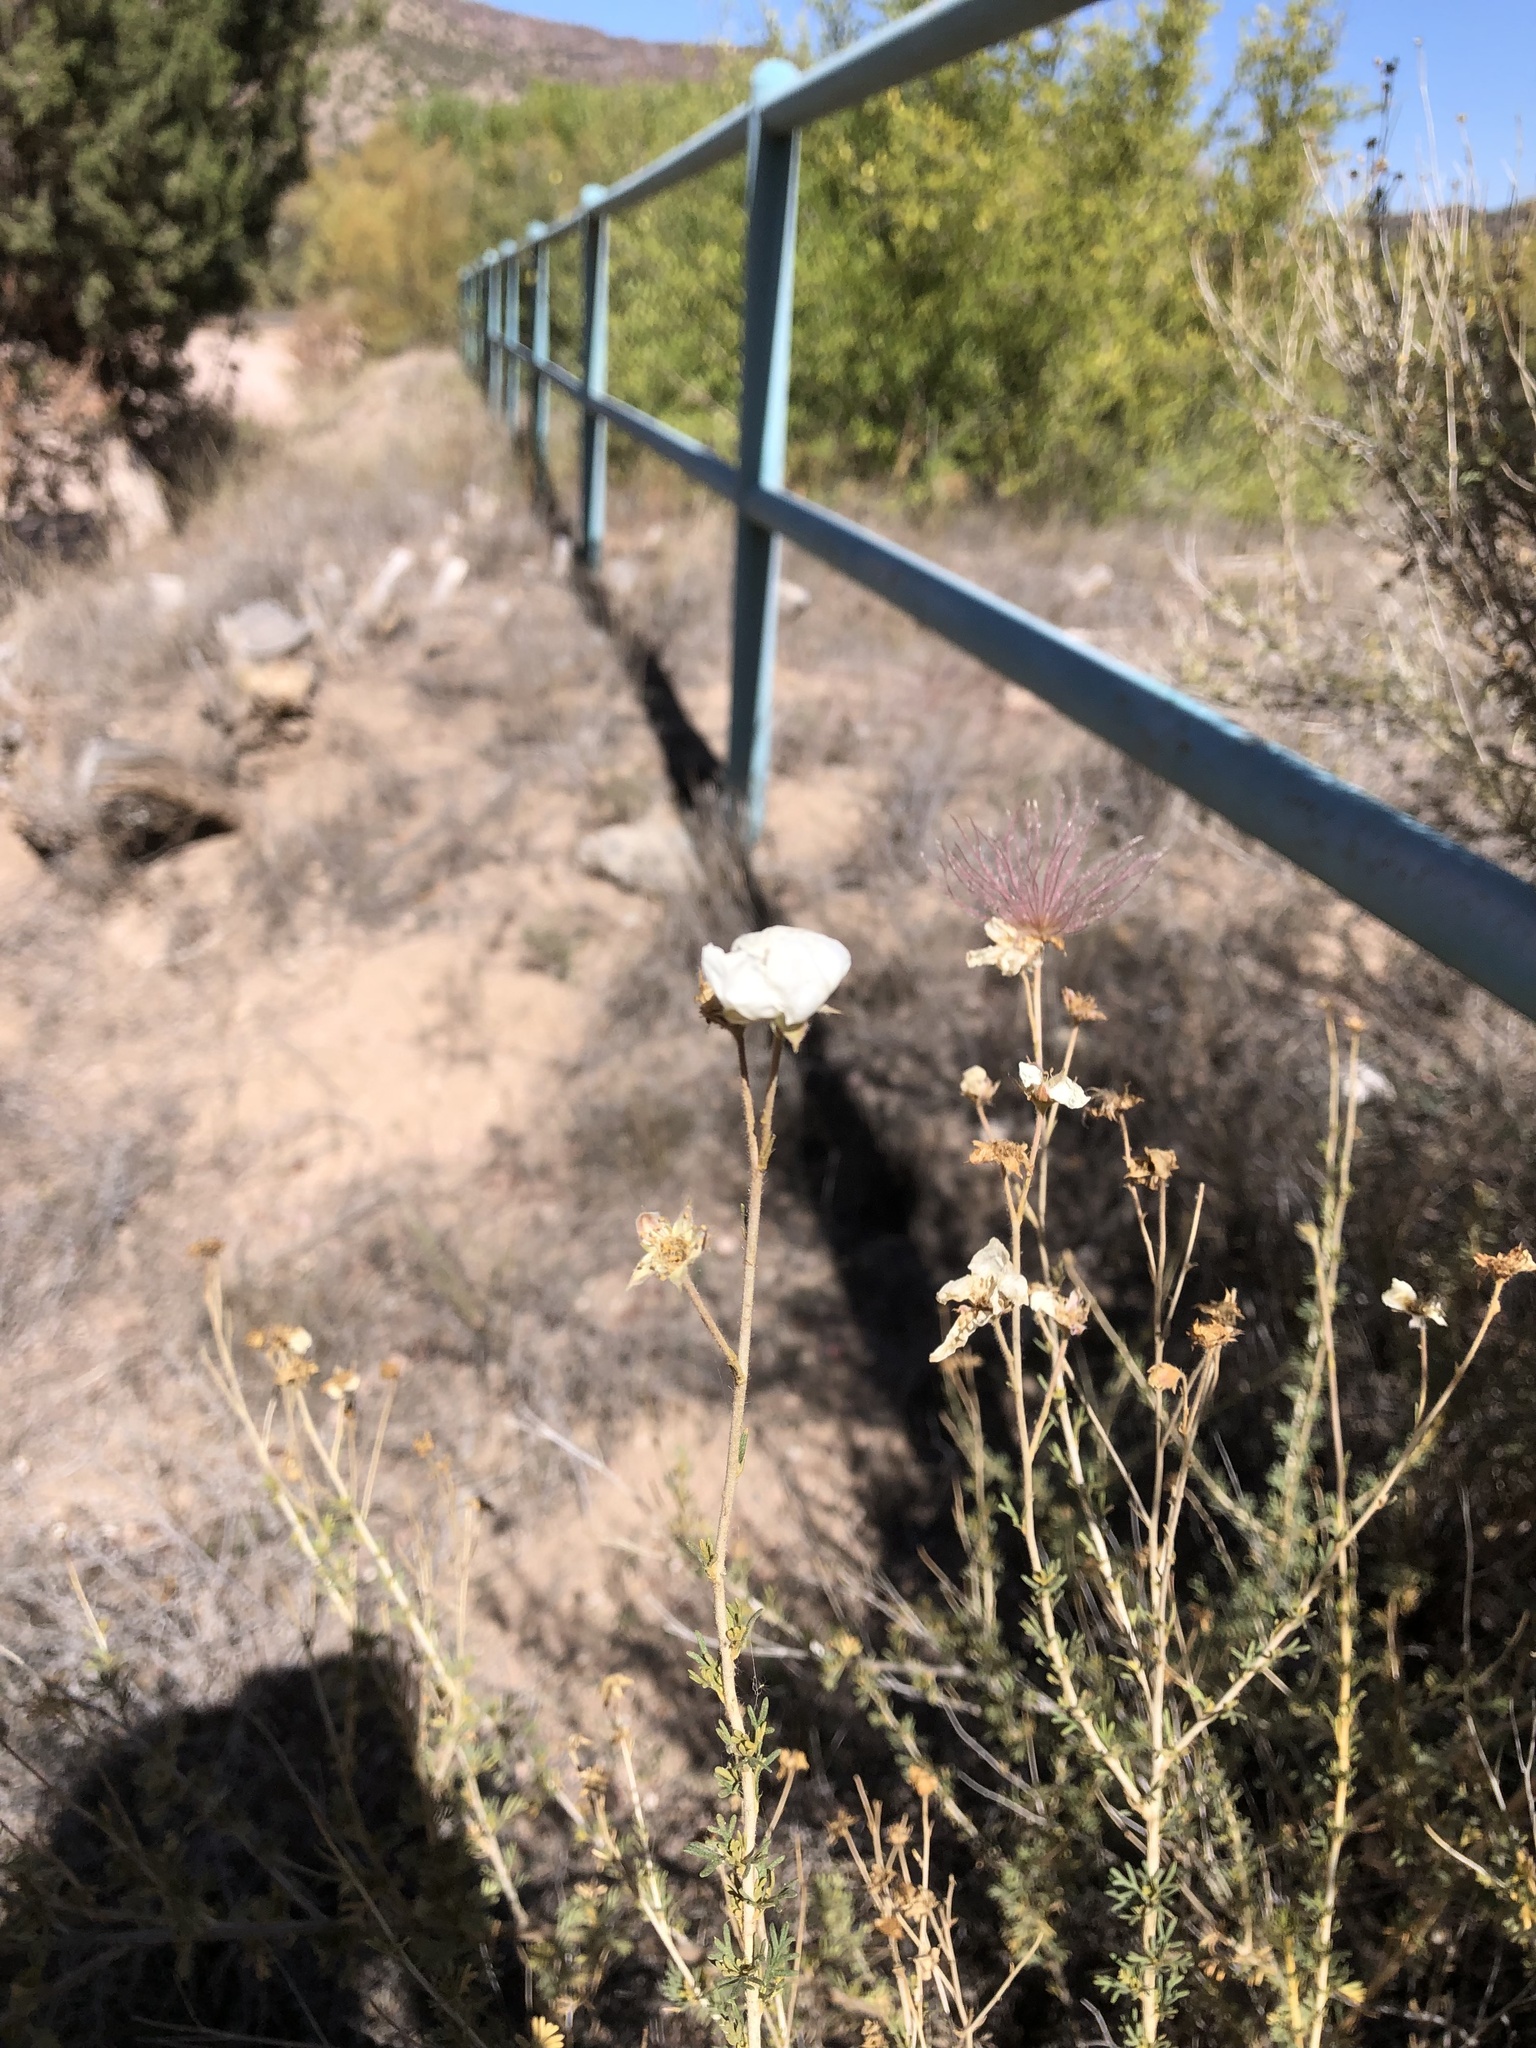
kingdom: Plantae
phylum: Tracheophyta
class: Magnoliopsida
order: Rosales
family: Rosaceae
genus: Fallugia
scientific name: Fallugia paradoxa
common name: Apache-plume
